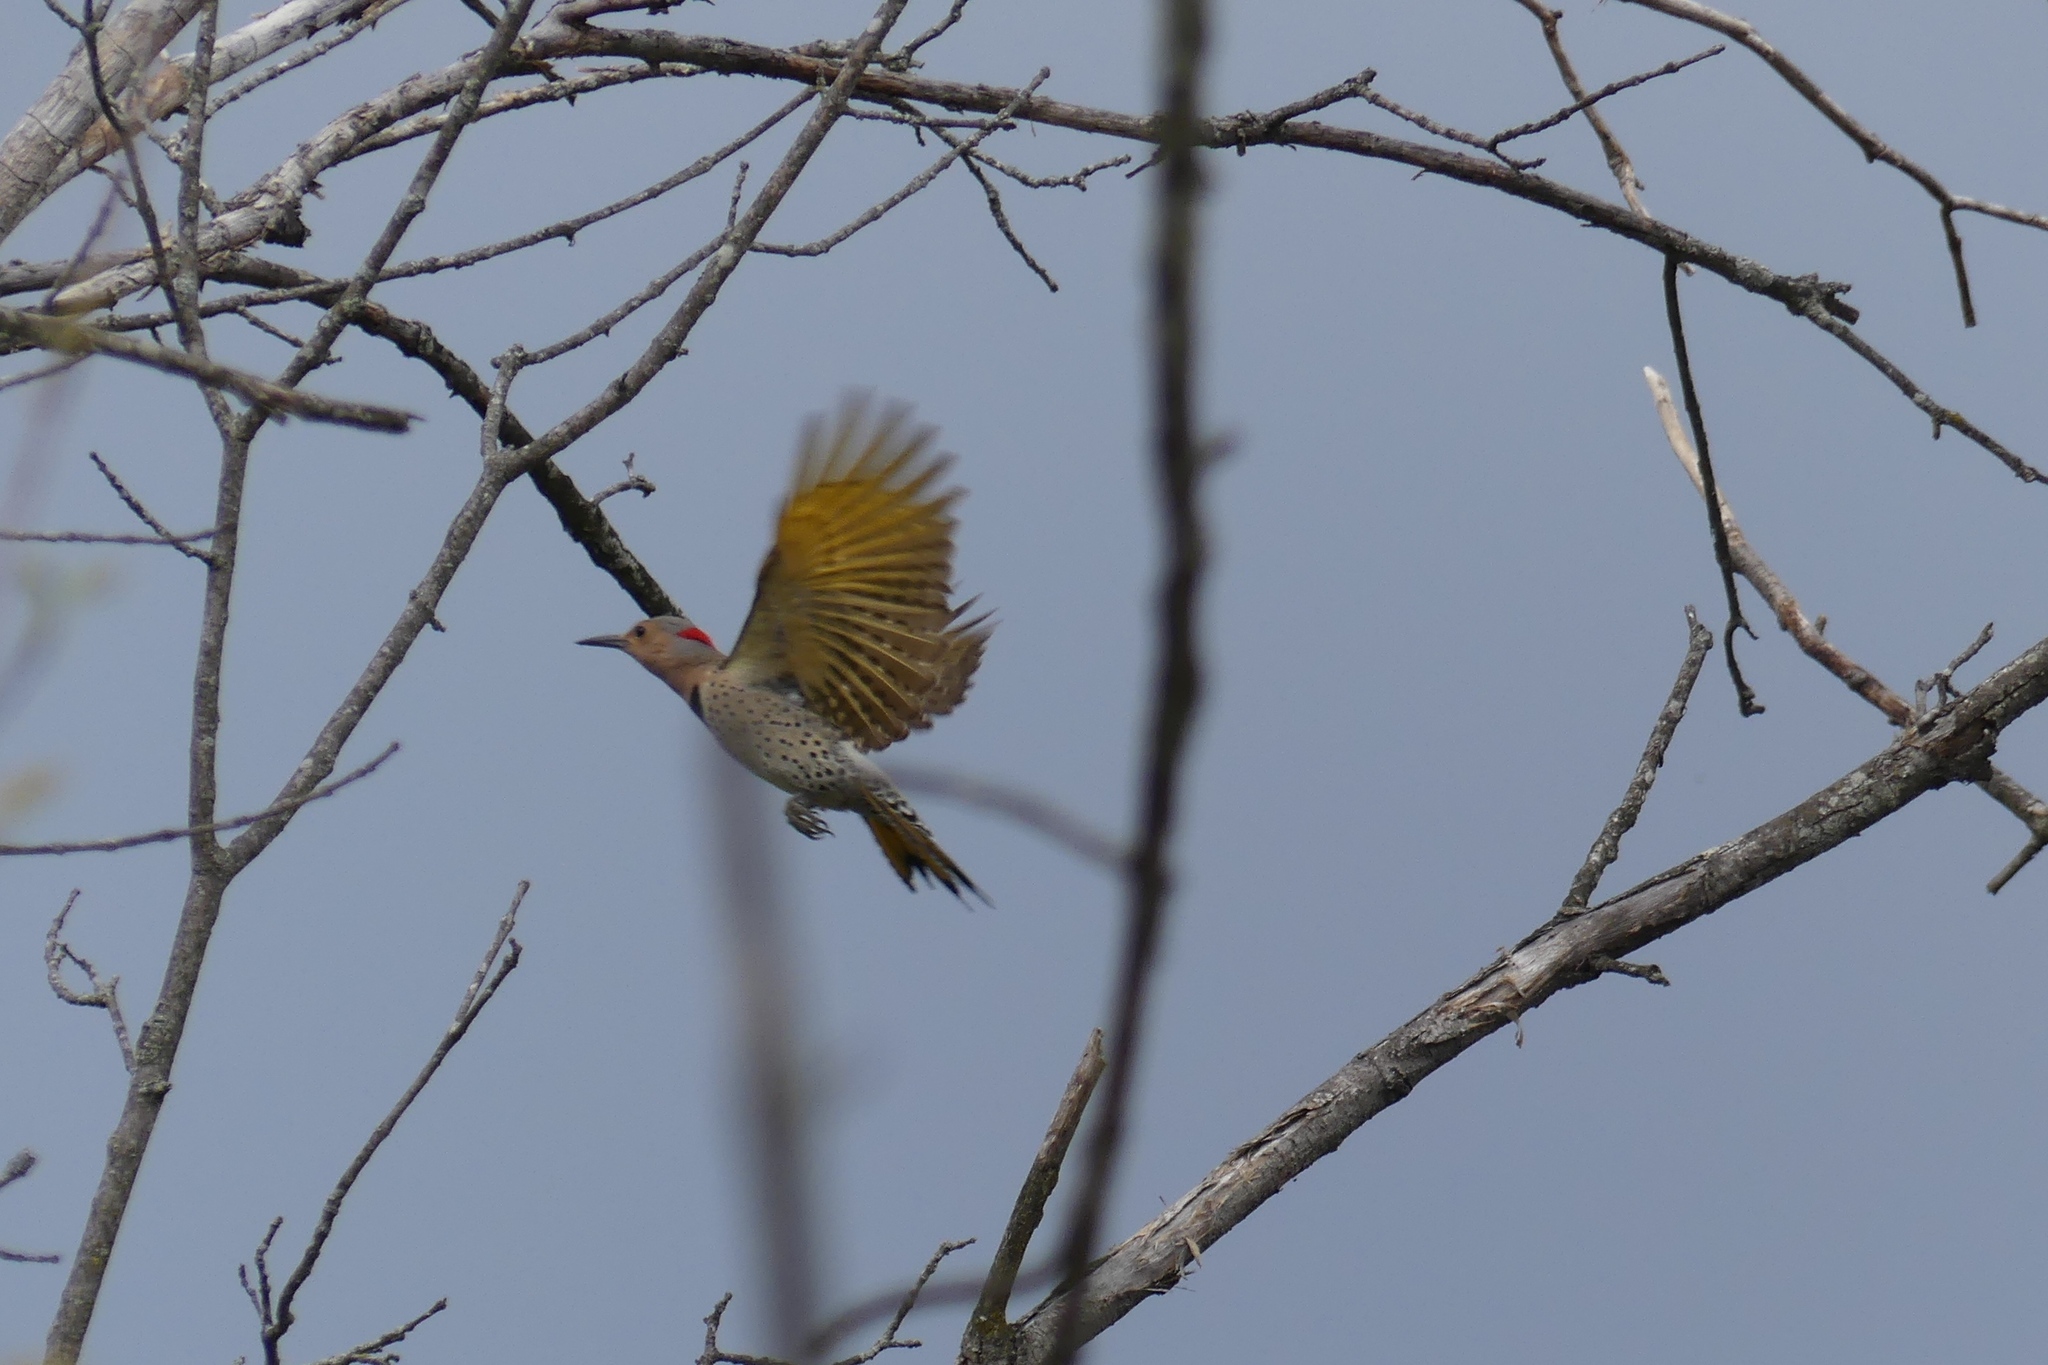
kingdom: Animalia
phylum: Chordata
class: Aves
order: Piciformes
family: Picidae
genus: Colaptes
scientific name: Colaptes auratus
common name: Northern flicker
